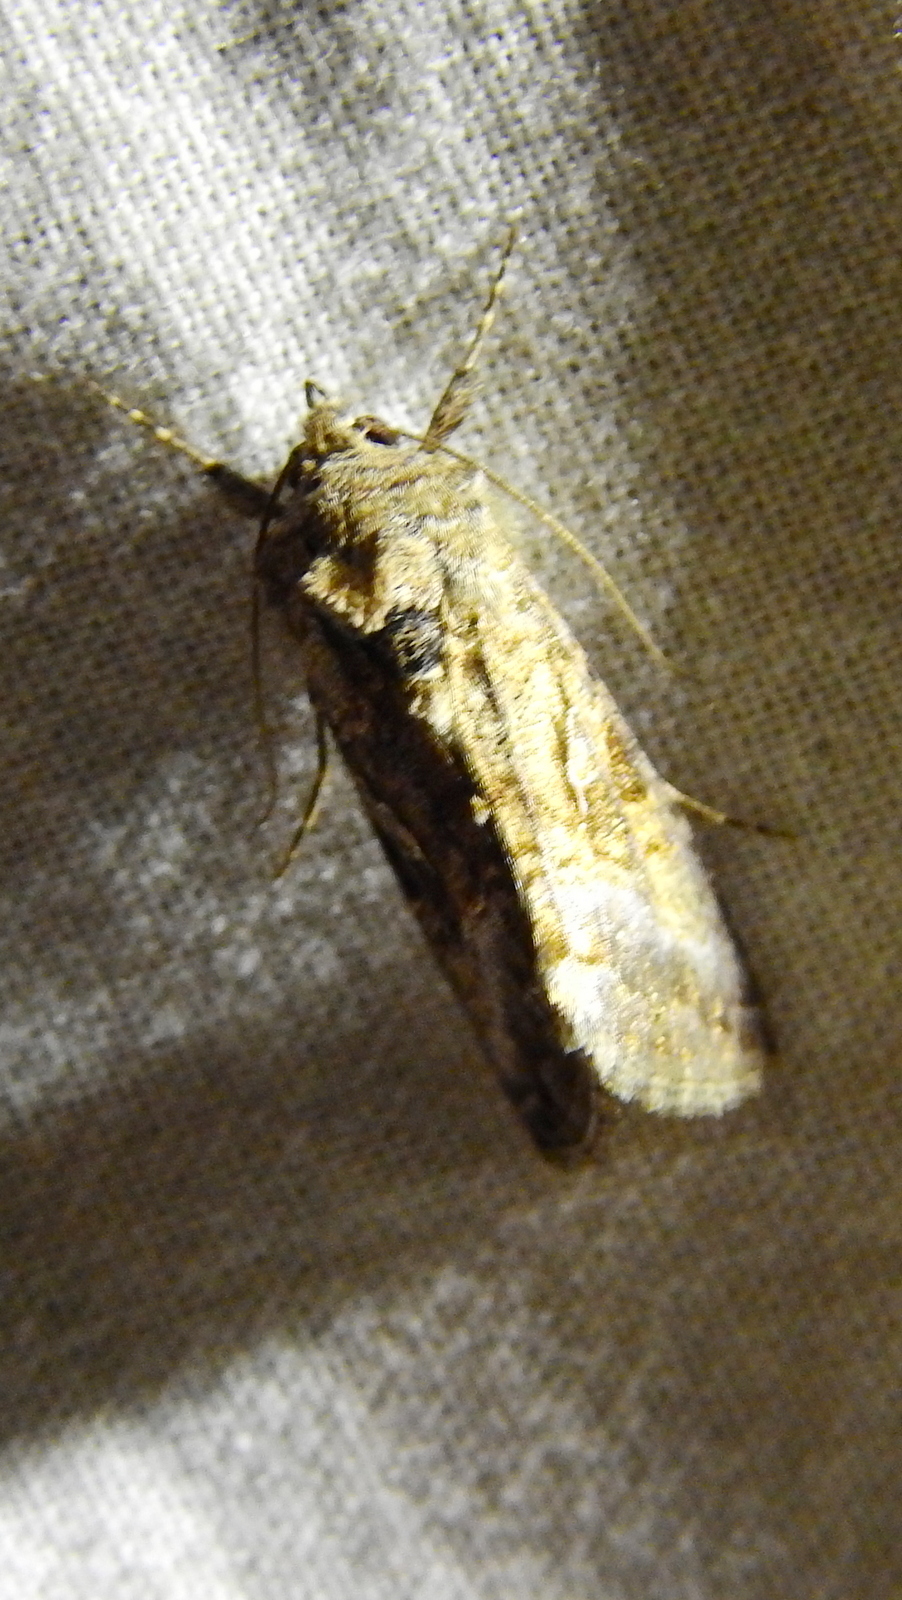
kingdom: Animalia
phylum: Arthropoda
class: Insecta
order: Lepidoptera
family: Noctuidae
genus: Rachiplusia
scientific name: Rachiplusia nu
